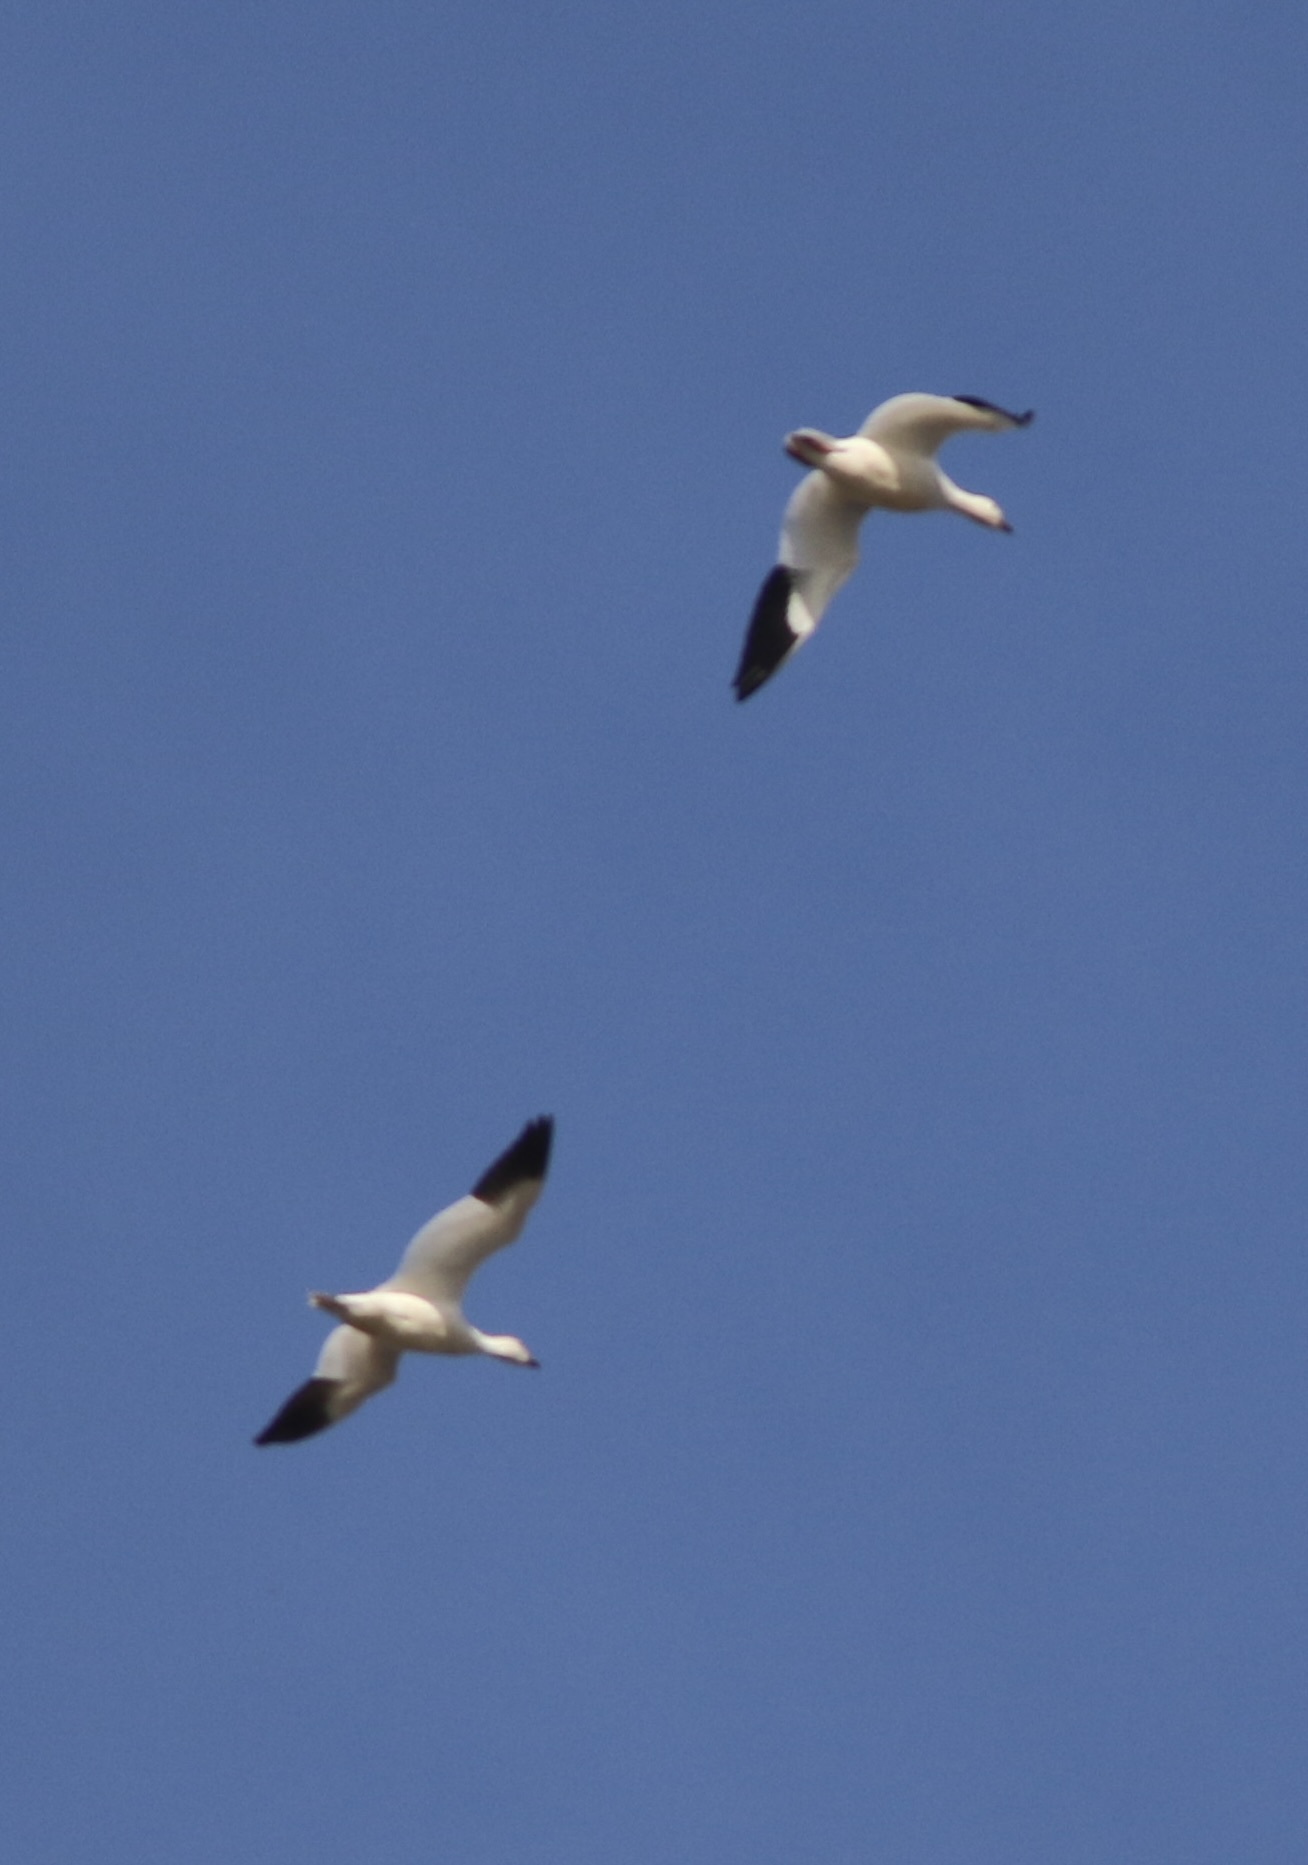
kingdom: Animalia
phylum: Chordata
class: Aves
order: Anseriformes
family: Anatidae
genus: Anser
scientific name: Anser caerulescens
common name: Snow goose
